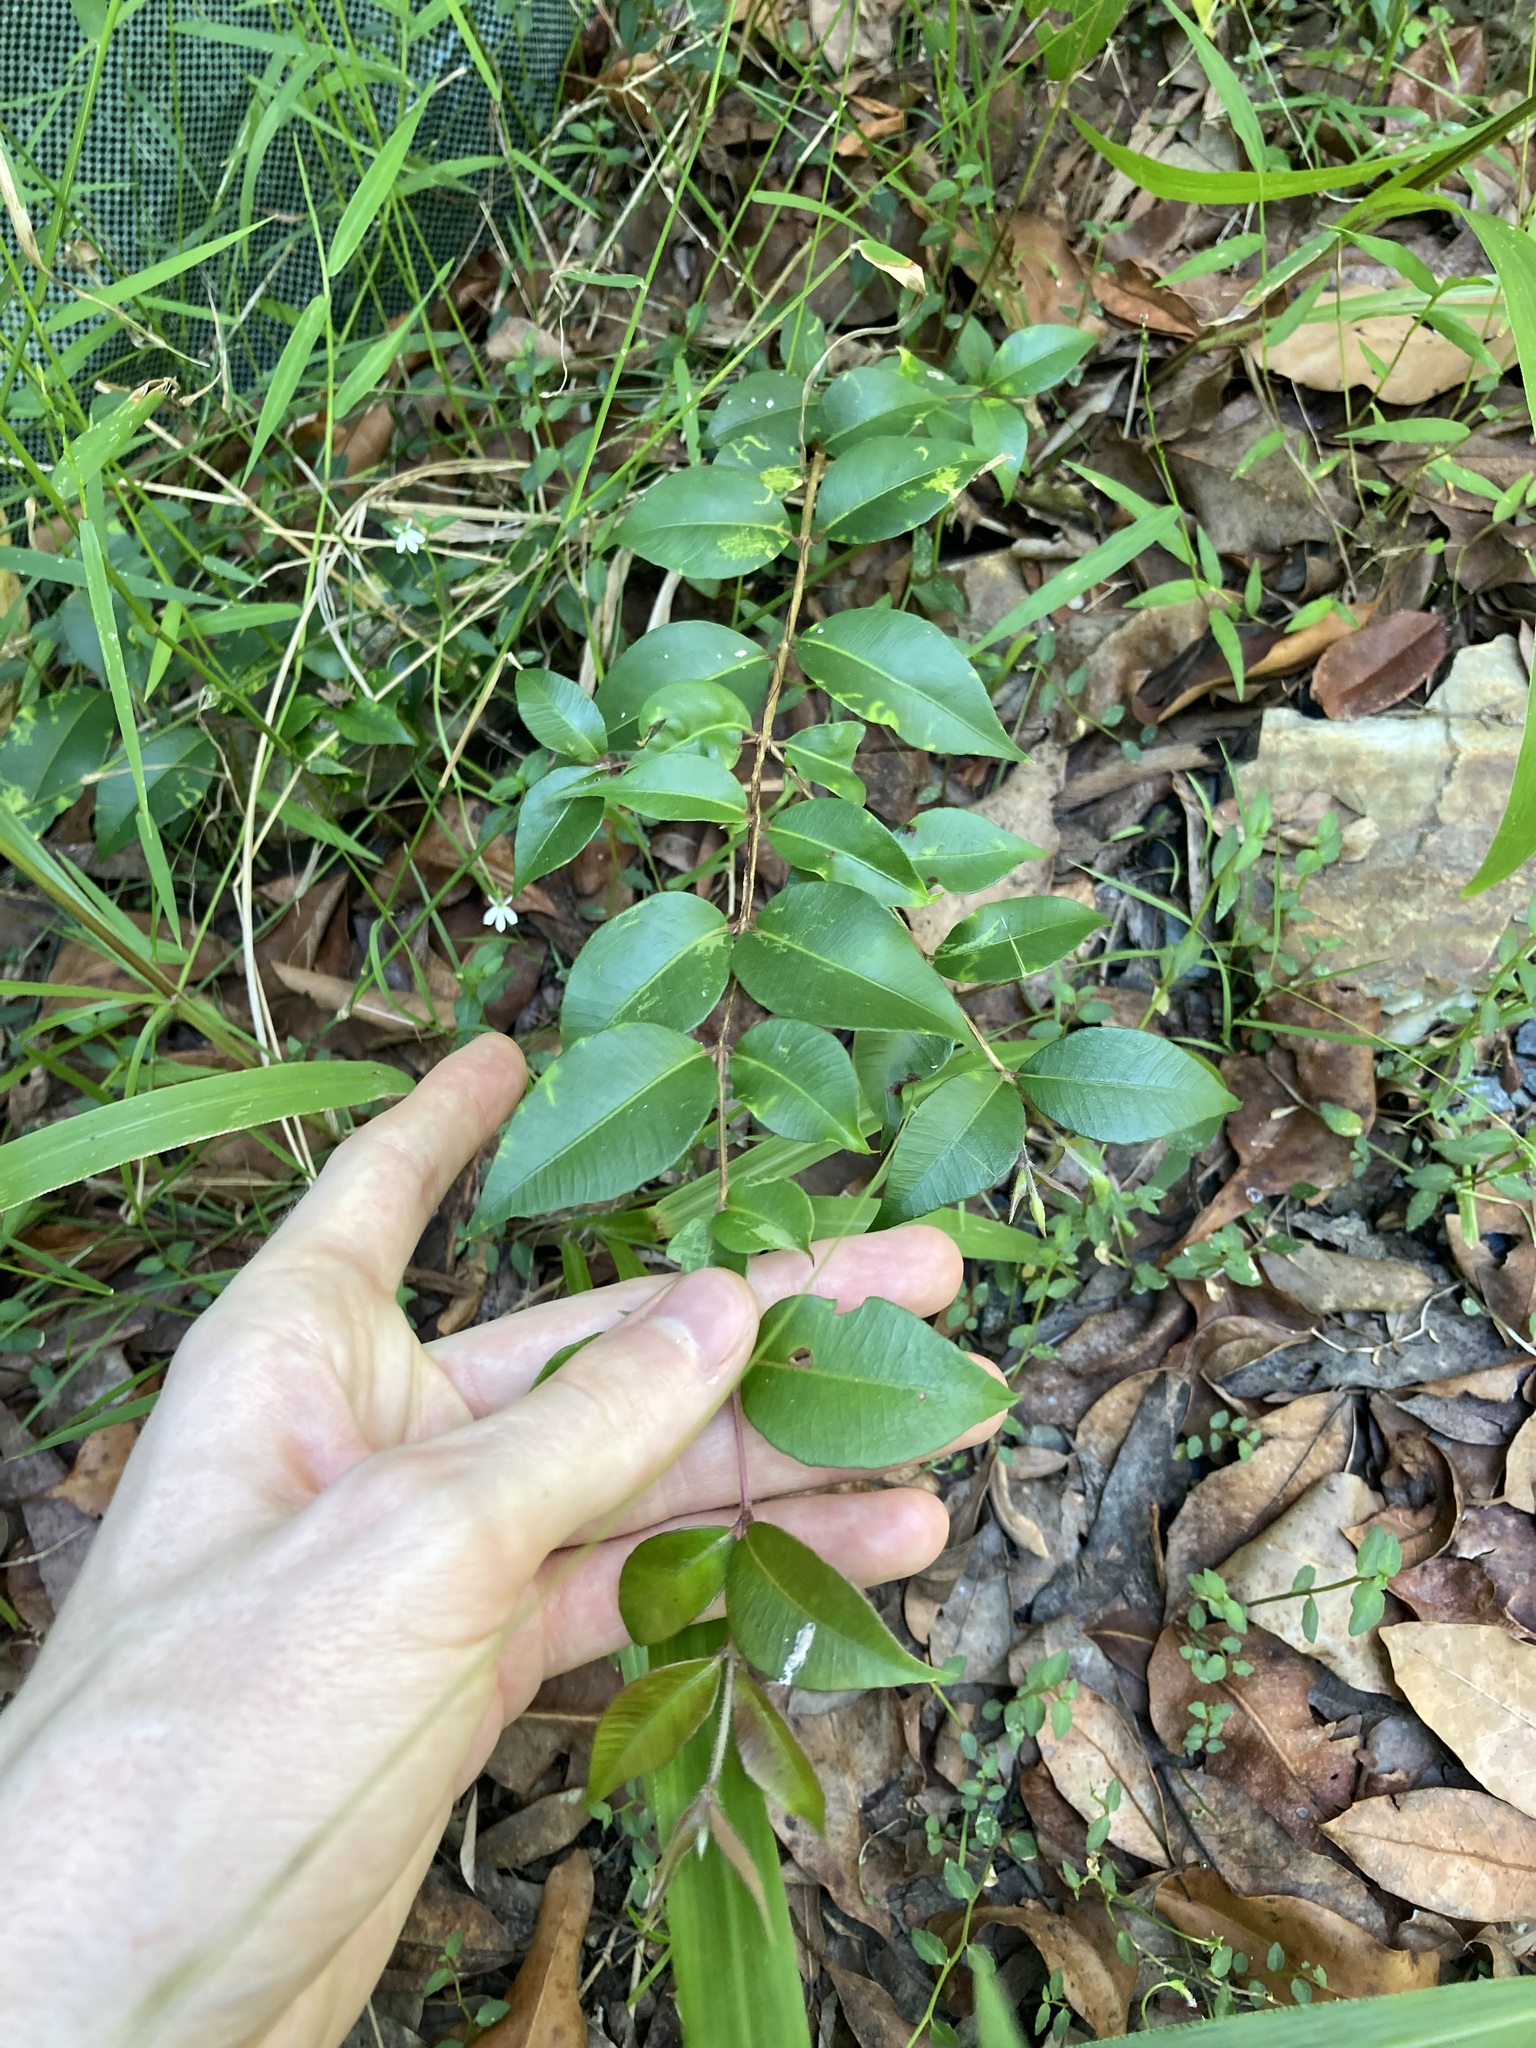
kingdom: Plantae
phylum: Tracheophyta
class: Magnoliopsida
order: Myrtales
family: Myrtaceae
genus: Backhousia
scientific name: Backhousia myrtifolia
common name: Carrol
